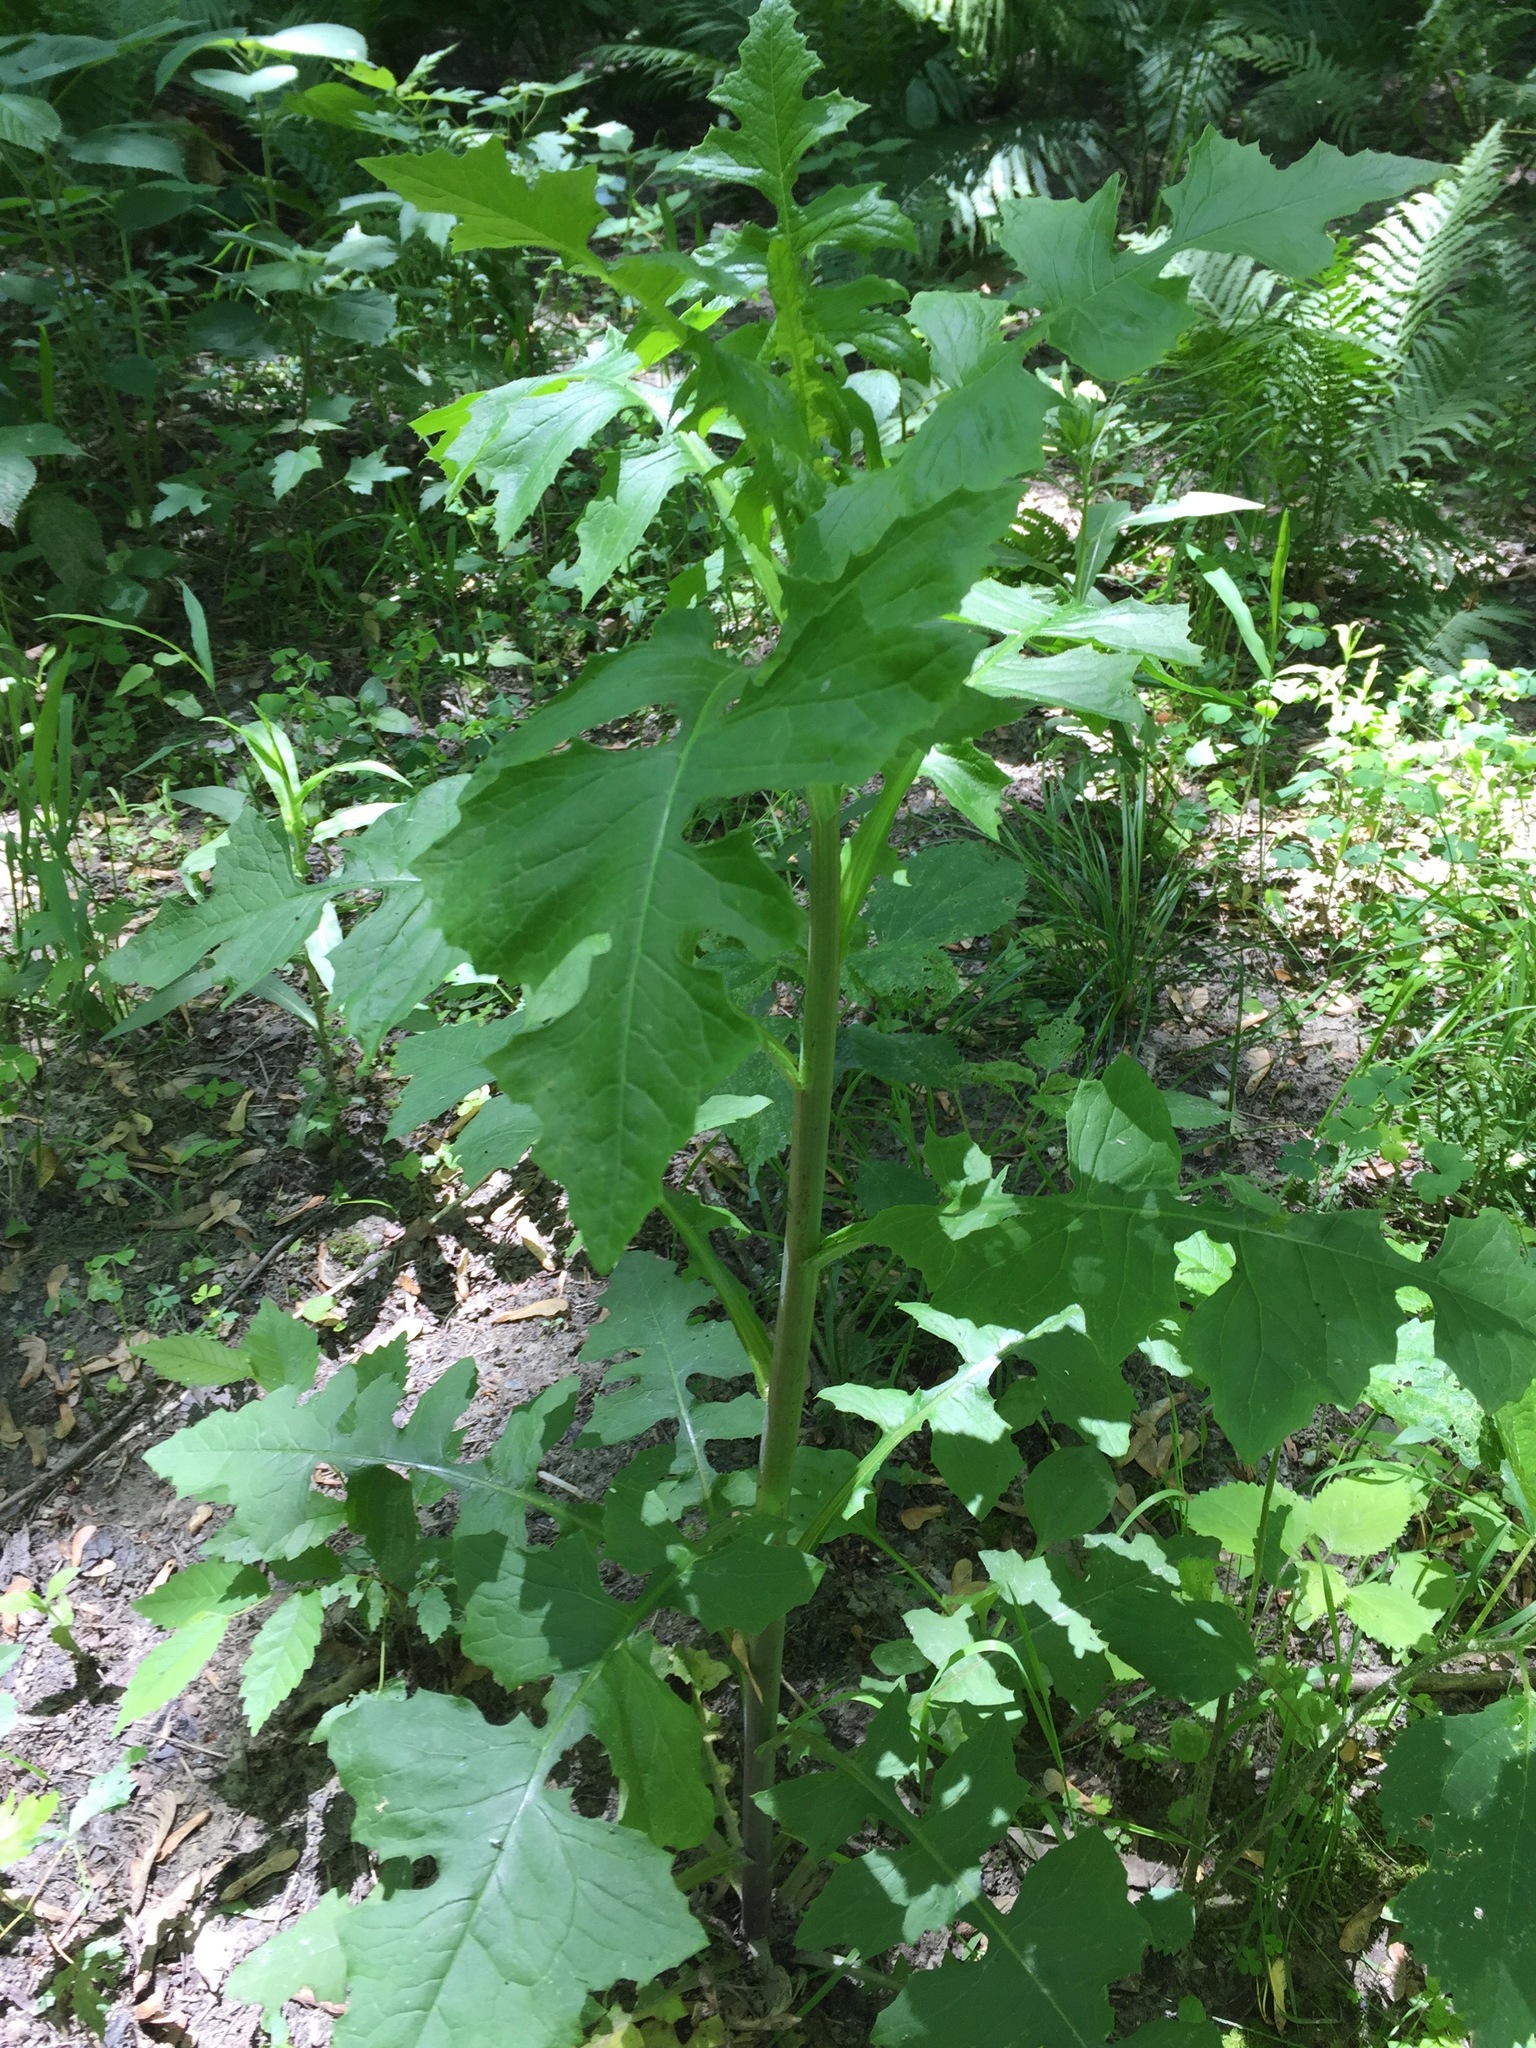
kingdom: Plantae
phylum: Tracheophyta
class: Magnoliopsida
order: Asterales
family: Asteraceae
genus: Lactuca
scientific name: Lactuca biennis
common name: Blue wood lettuce
